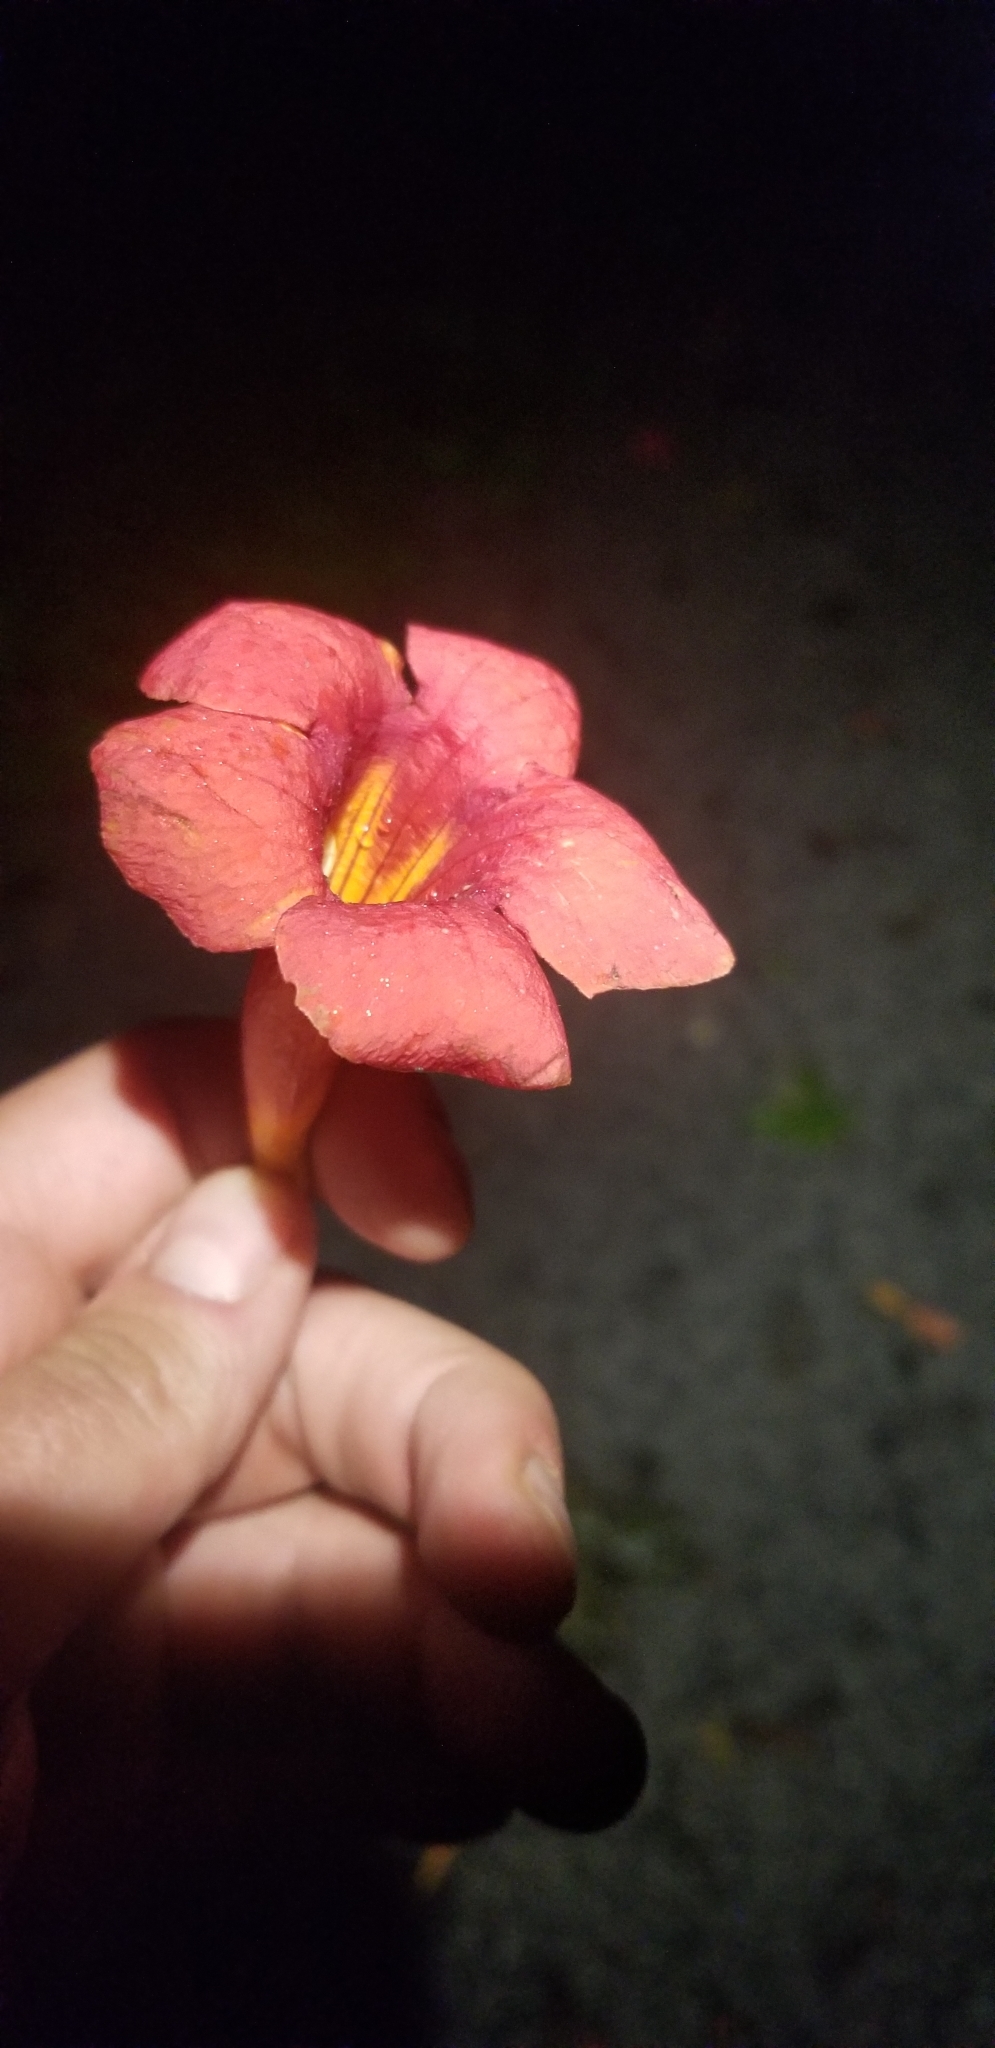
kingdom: Plantae
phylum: Tracheophyta
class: Magnoliopsida
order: Lamiales
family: Bignoniaceae
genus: Campsis
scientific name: Campsis radicans
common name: Trumpet-creeper
